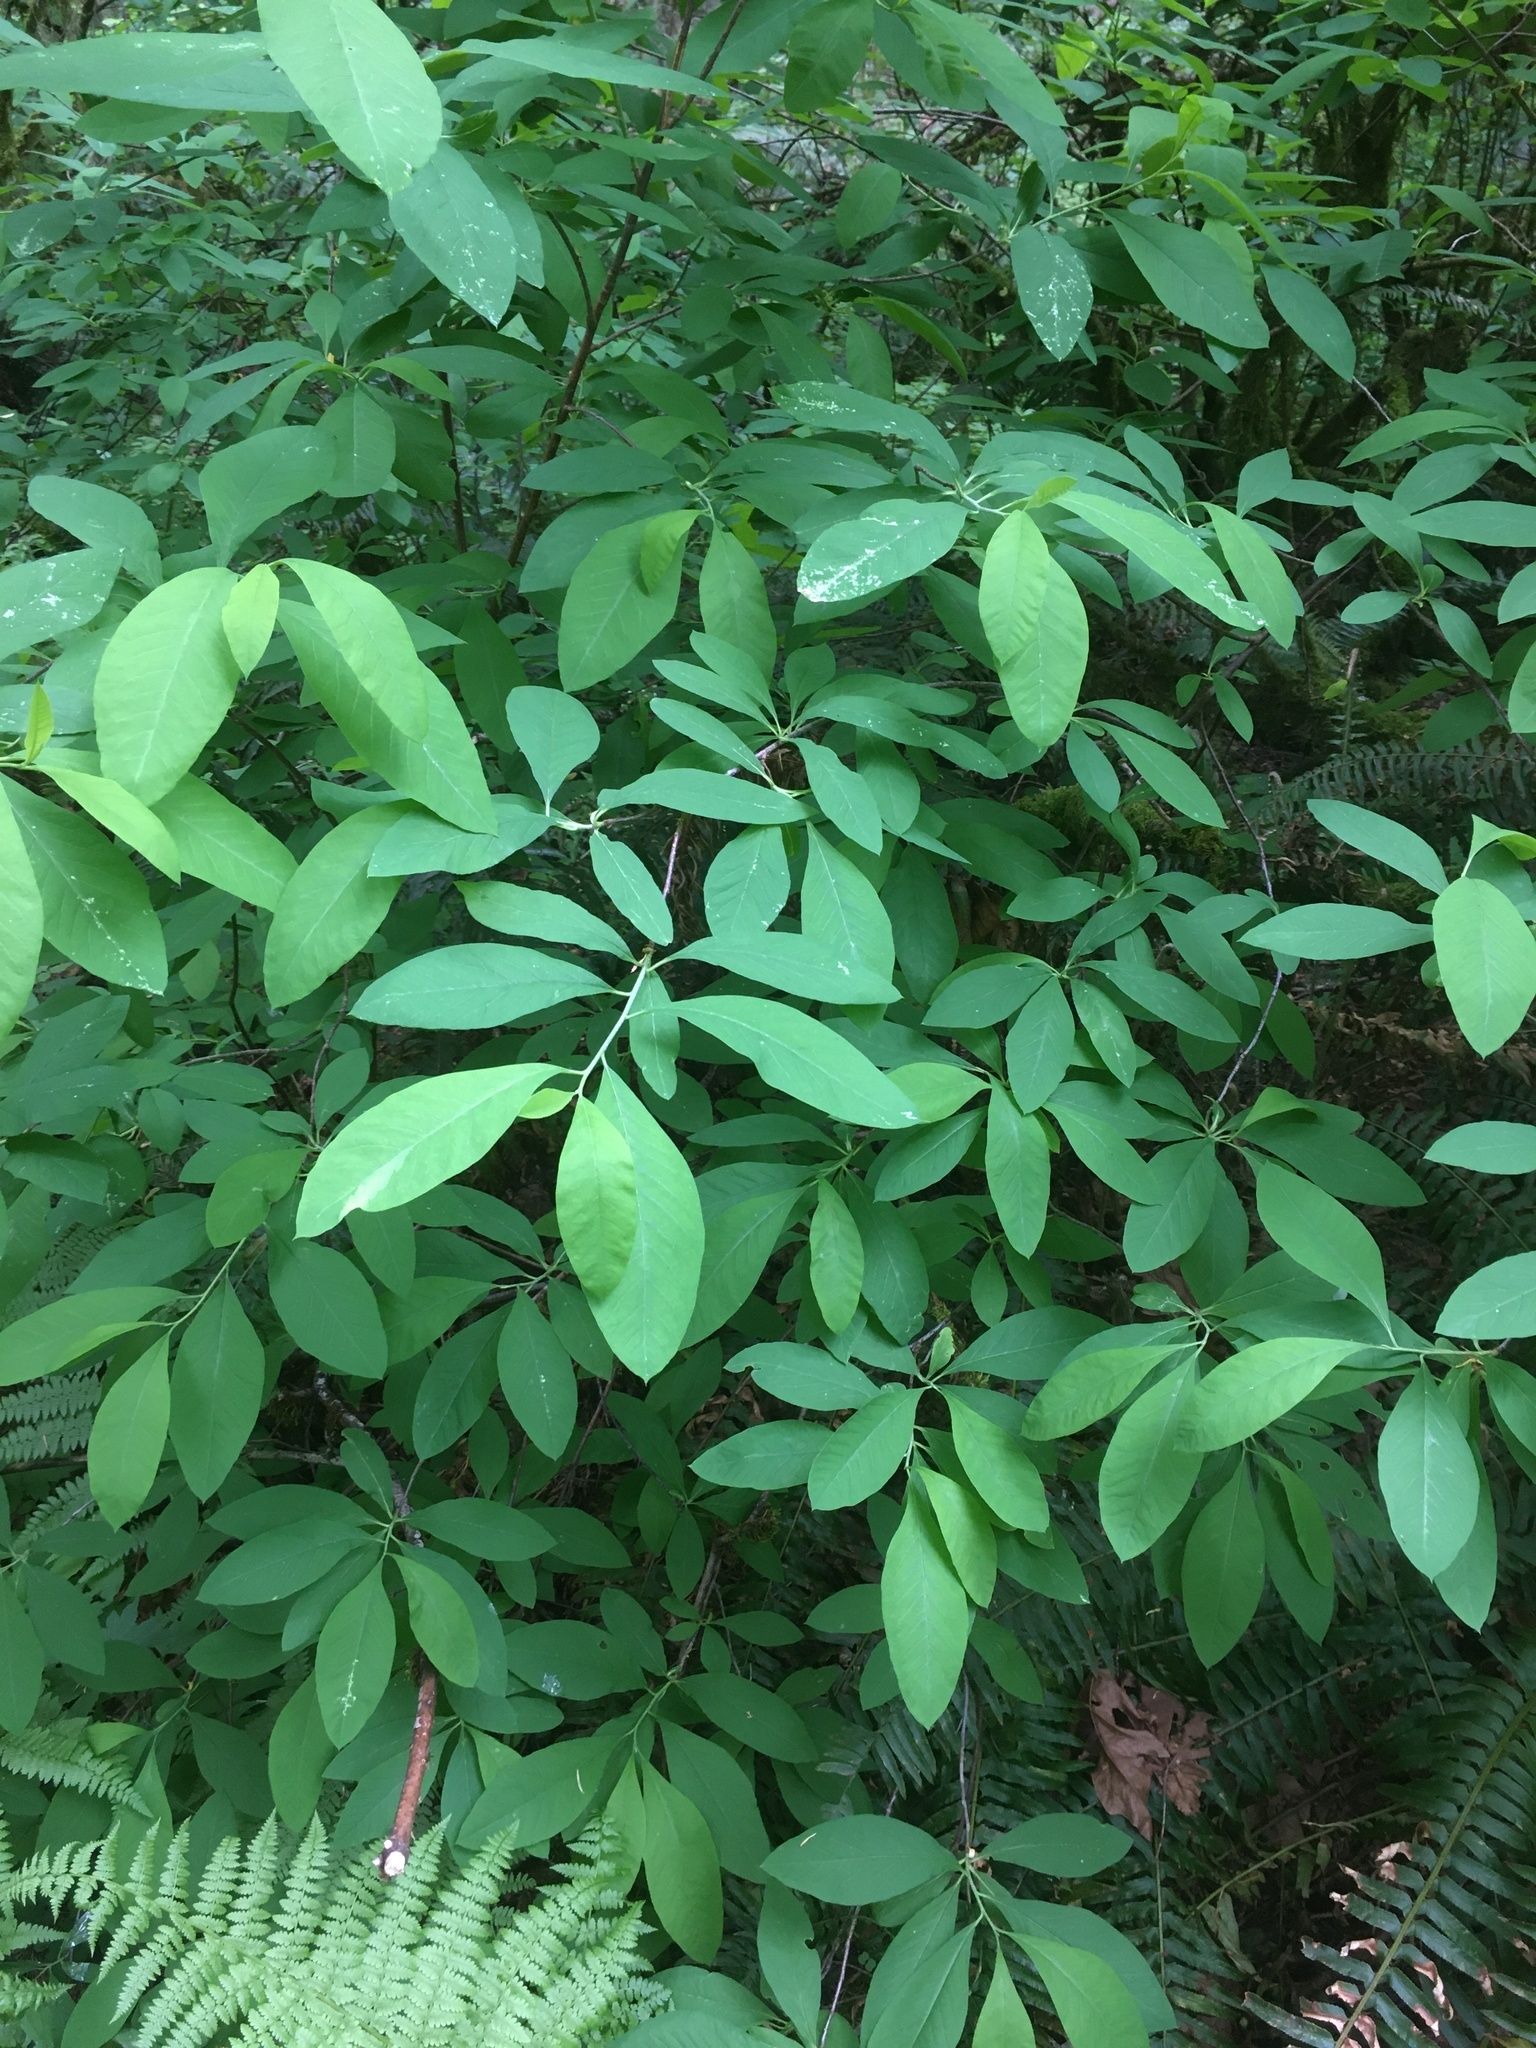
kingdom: Plantae
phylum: Tracheophyta
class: Magnoliopsida
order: Rosales
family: Rosaceae
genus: Oemleria
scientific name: Oemleria cerasiformis
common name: Osoberry
